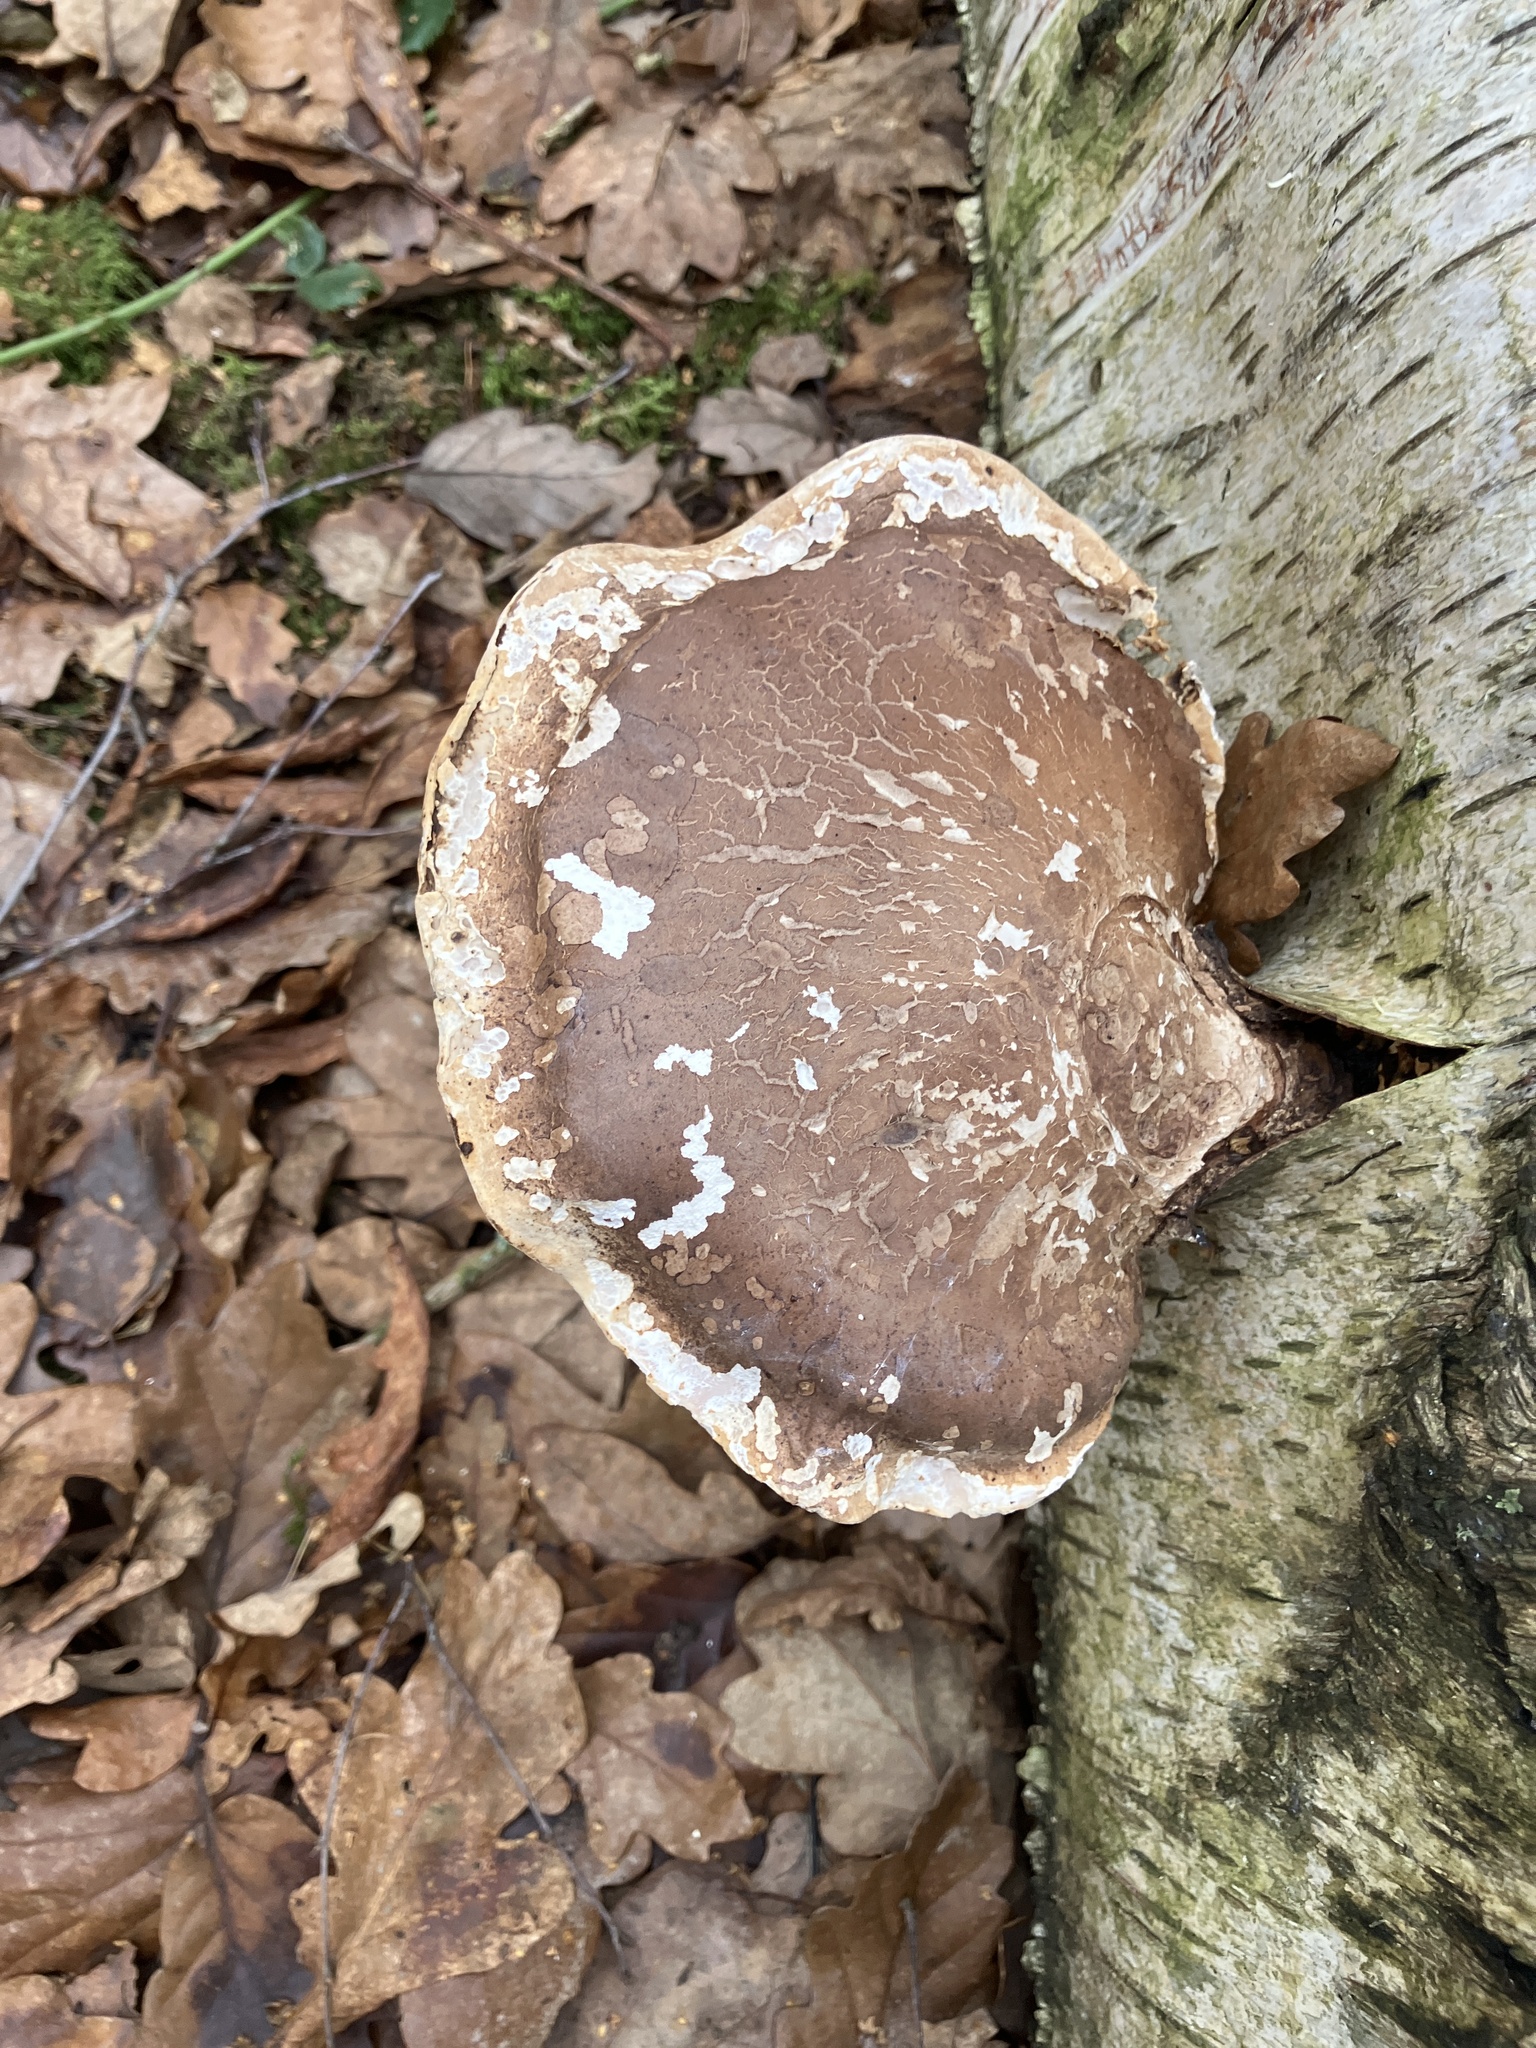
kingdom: Fungi
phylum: Basidiomycota
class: Agaricomycetes
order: Polyporales
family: Fomitopsidaceae
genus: Fomitopsis
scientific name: Fomitopsis betulina
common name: Birch polypore
